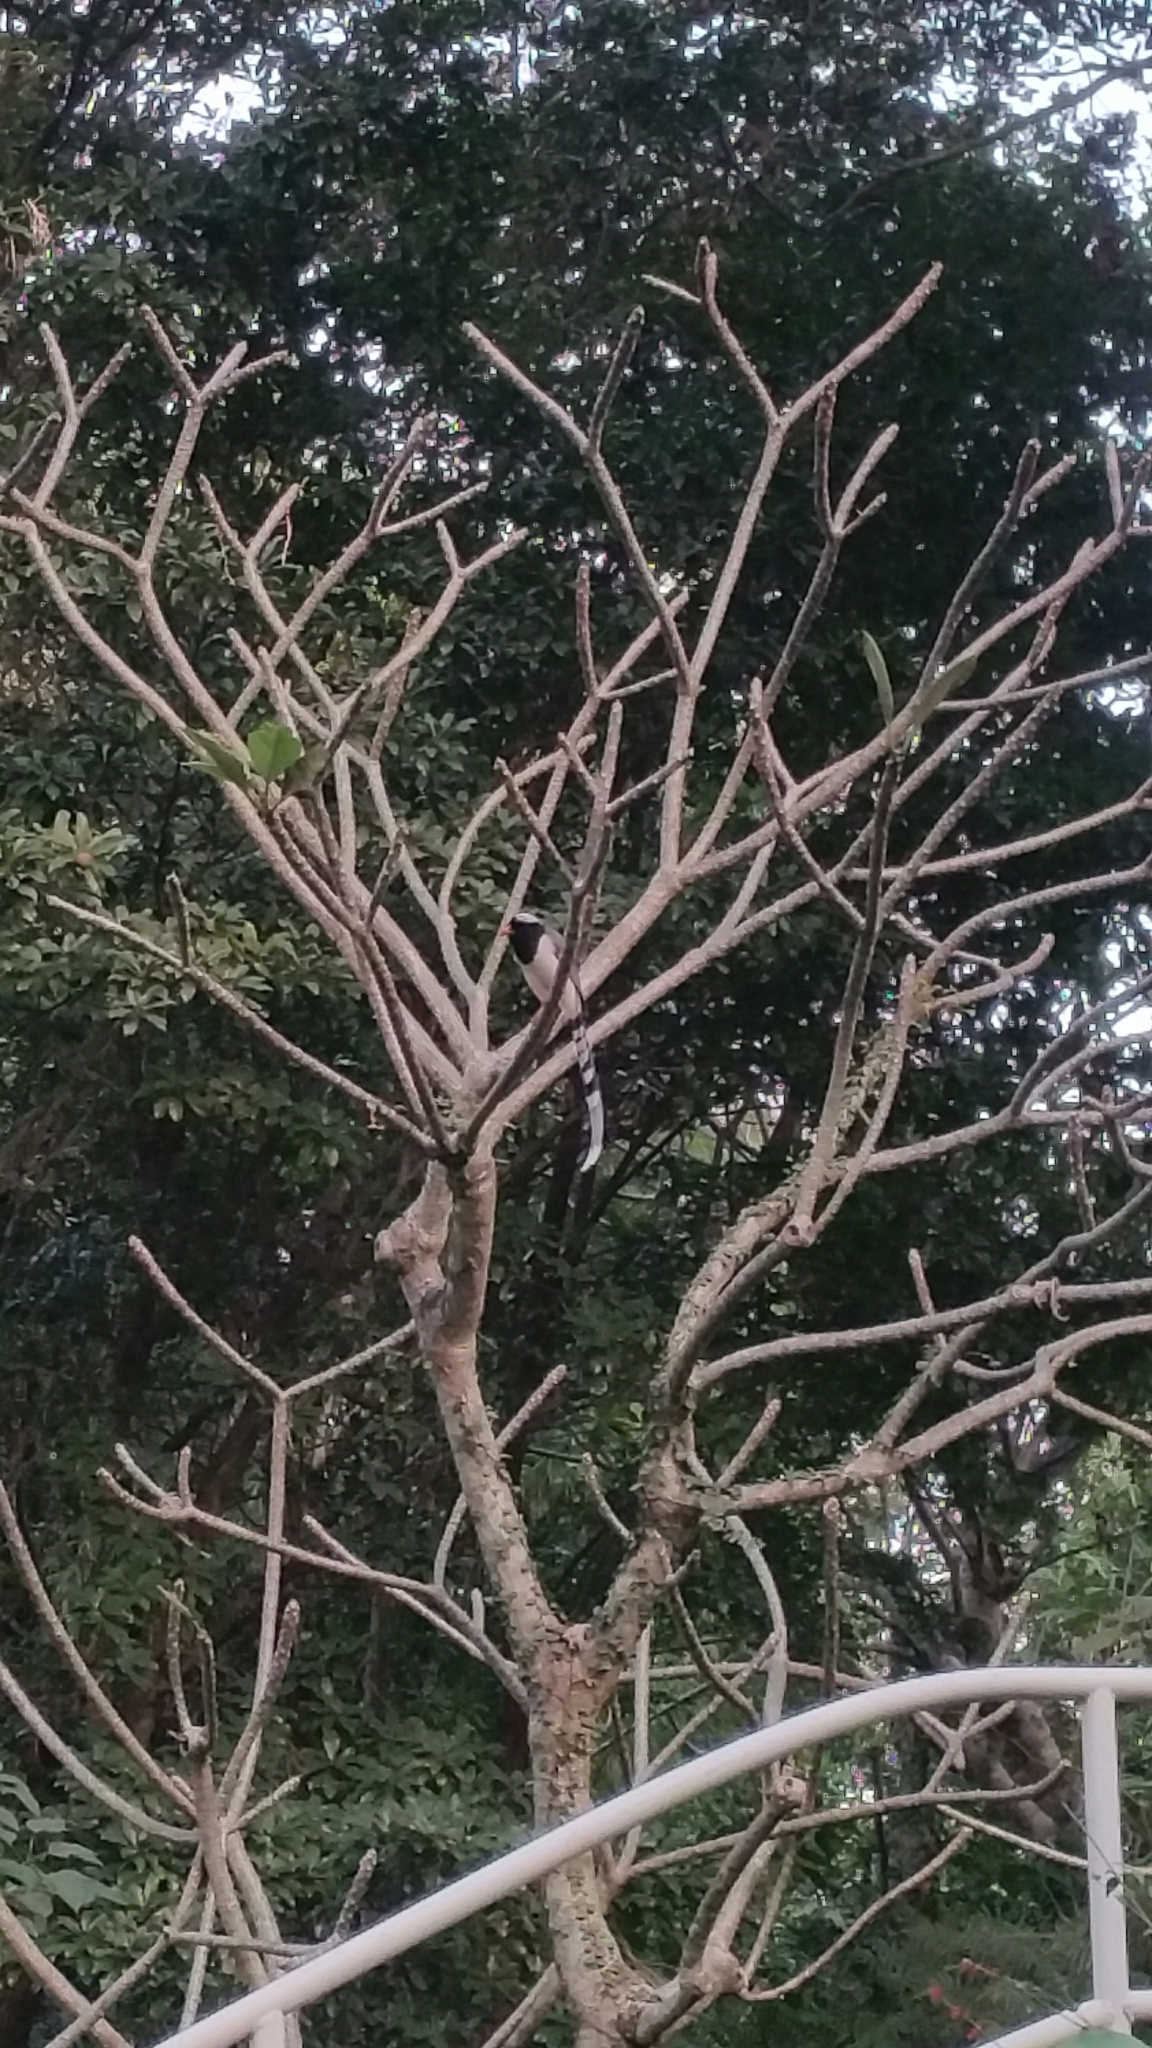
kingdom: Animalia
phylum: Chordata
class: Aves
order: Passeriformes
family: Corvidae
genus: Urocissa
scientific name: Urocissa erythroryncha
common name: Red-billed blue magpie
